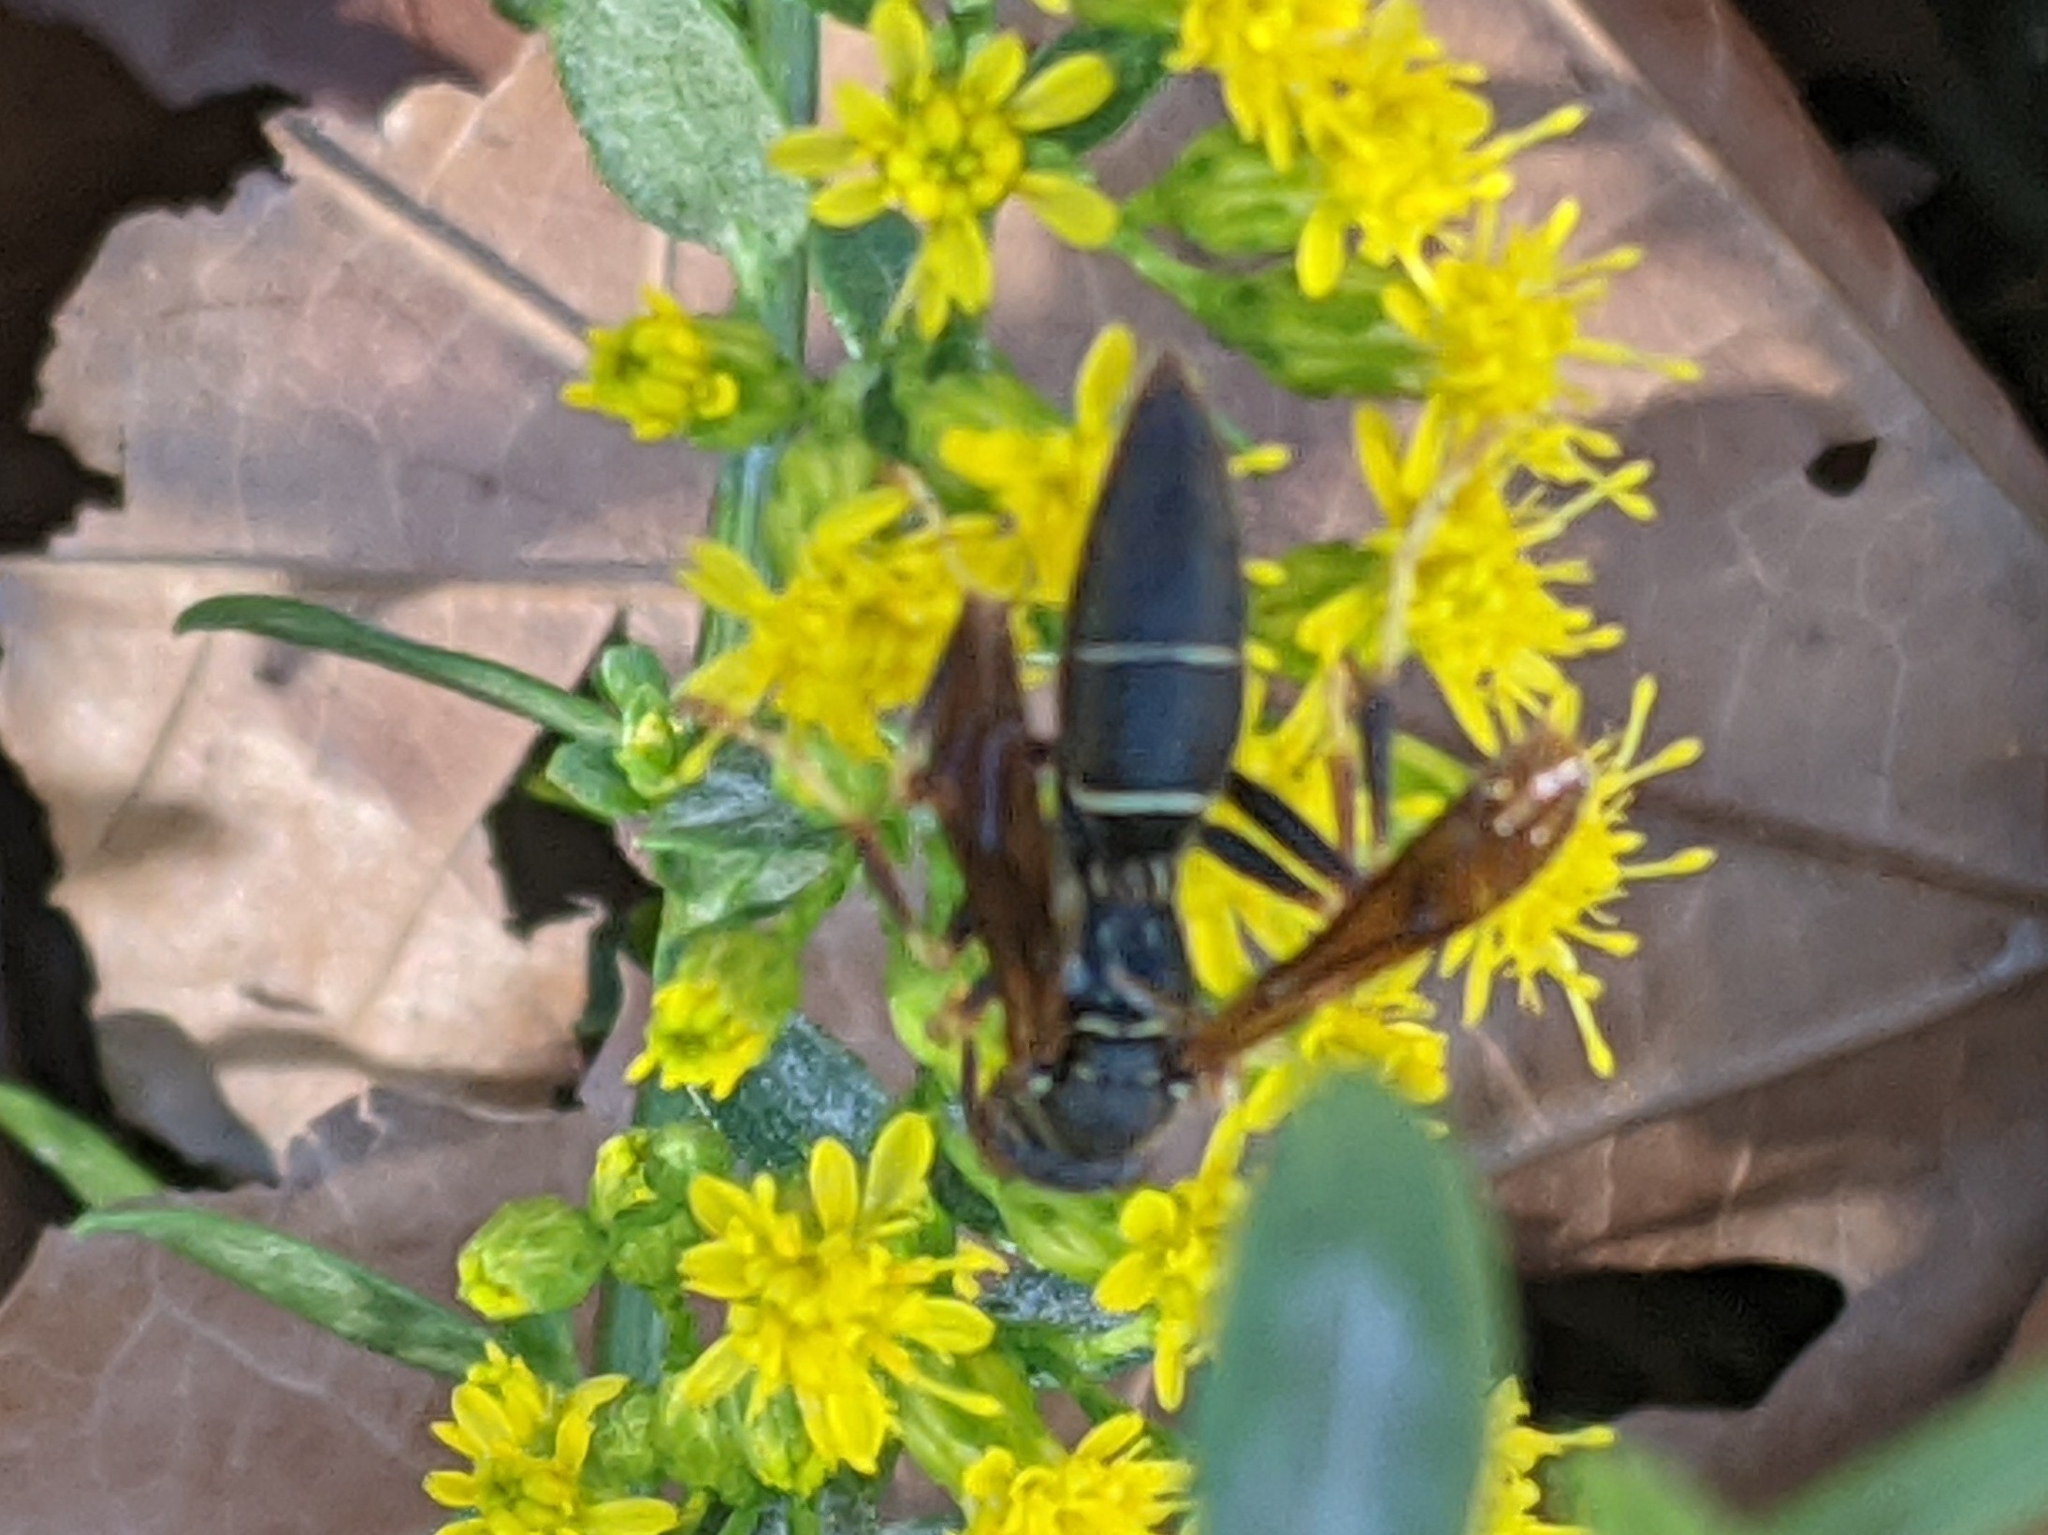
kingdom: Animalia
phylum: Arthropoda
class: Insecta
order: Hymenoptera
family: Eumenidae
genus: Polistes
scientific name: Polistes fuscatus
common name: Dark paper wasp
